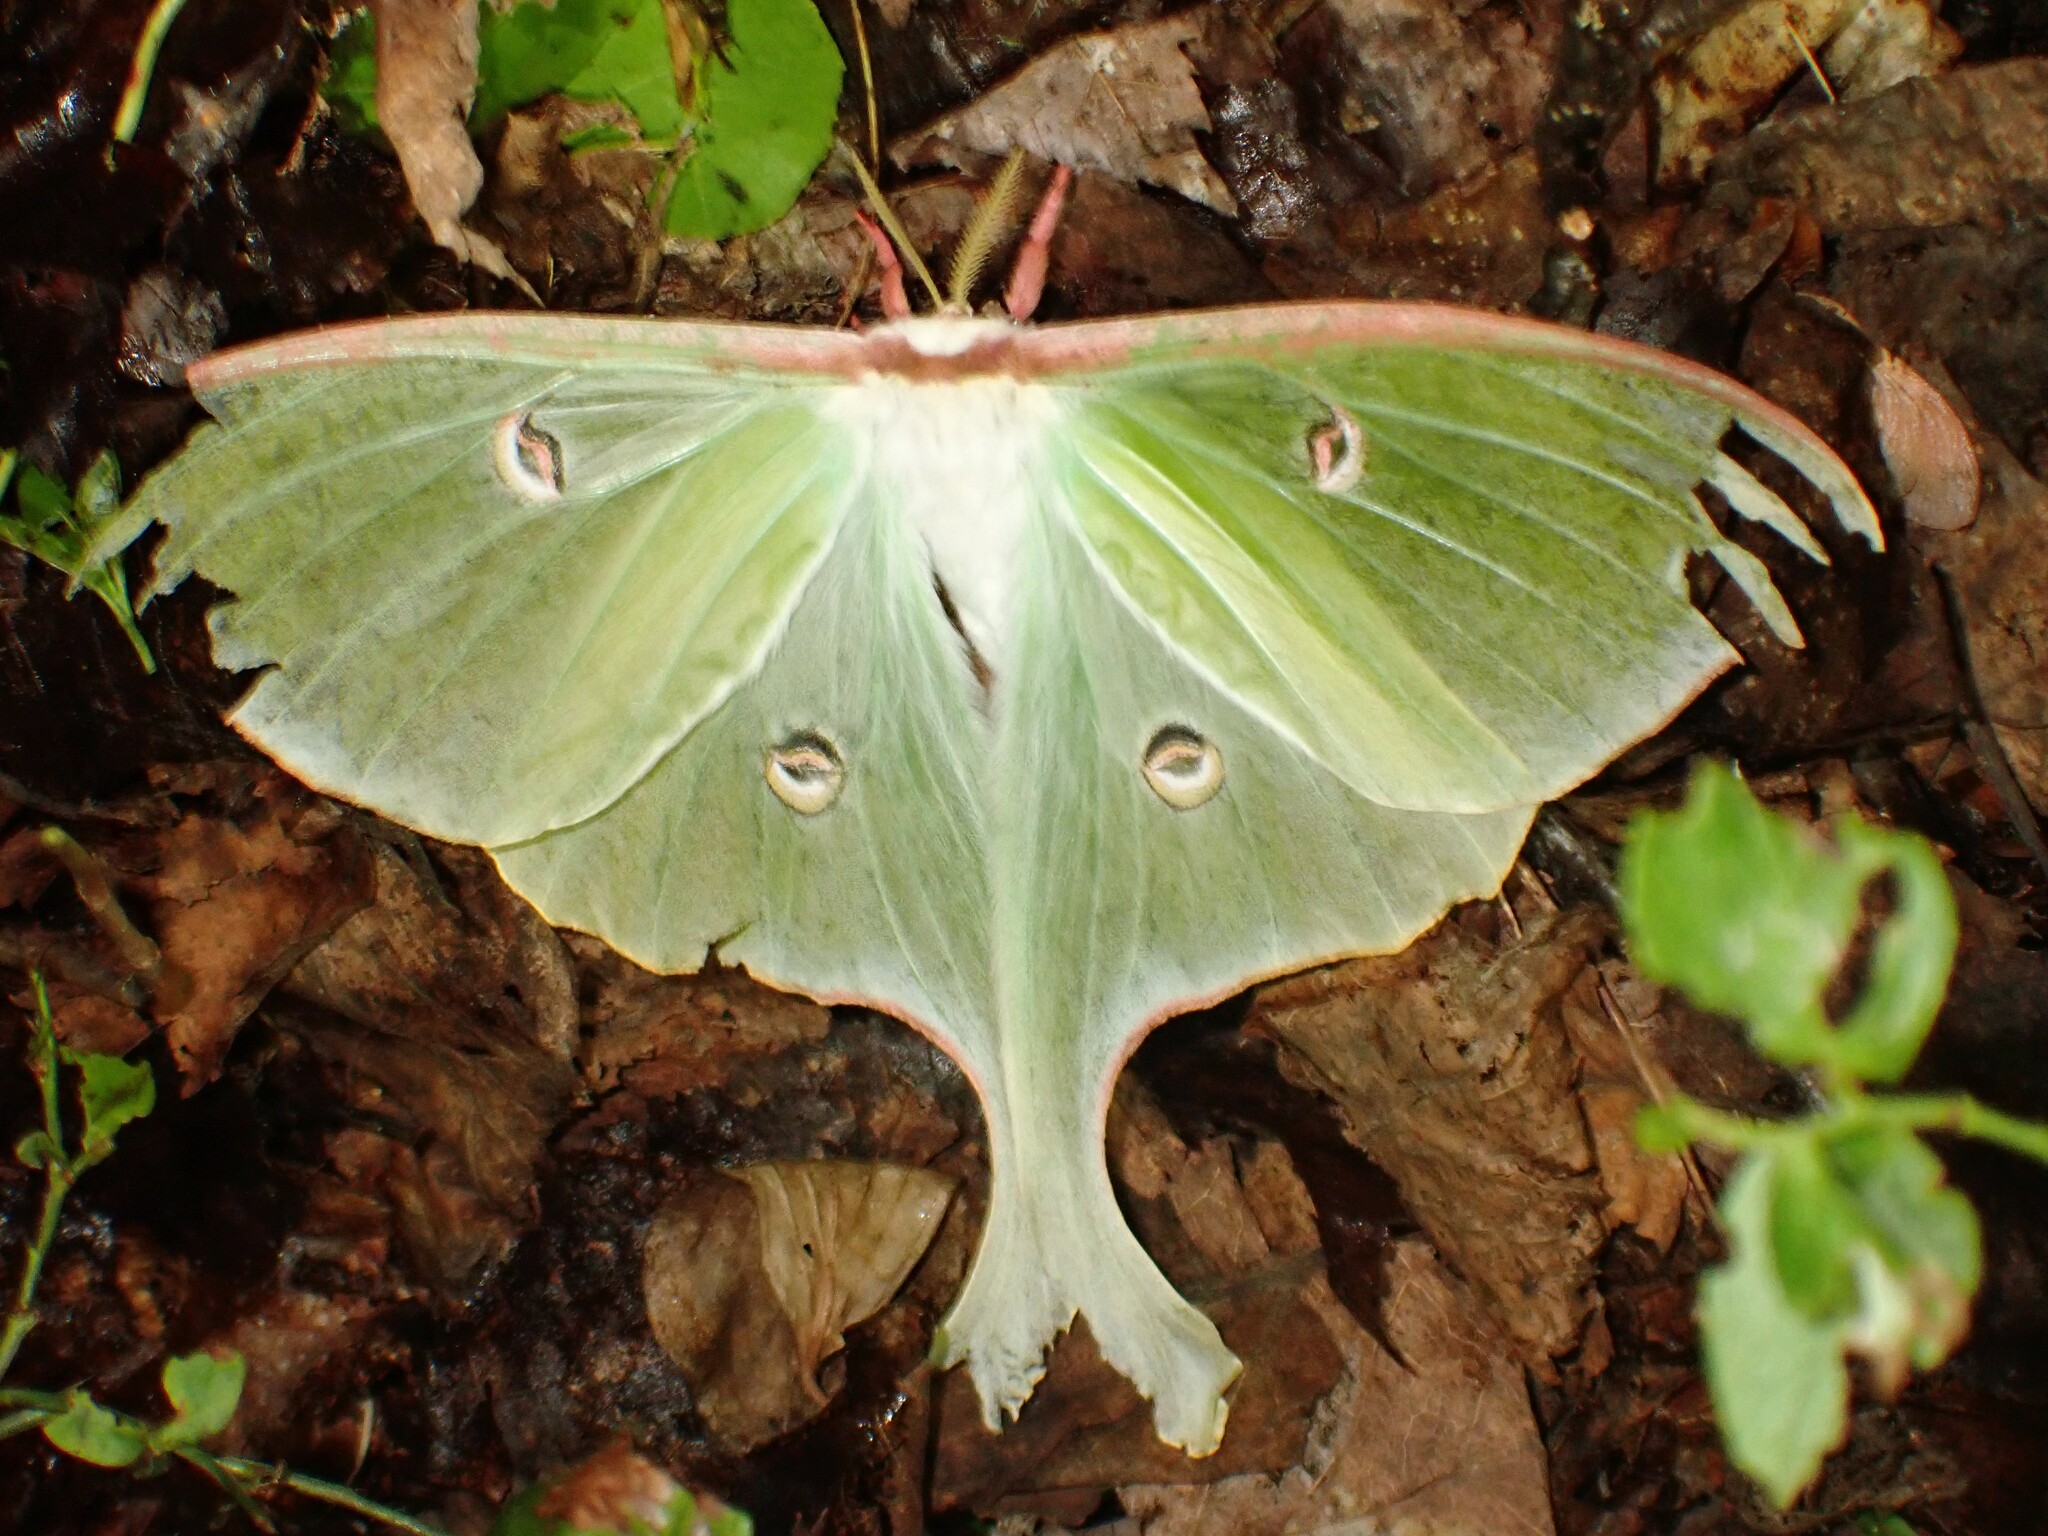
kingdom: Animalia
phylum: Arthropoda
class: Insecta
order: Lepidoptera
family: Saturniidae
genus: Actias
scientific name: Actias luna
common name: Luna moth
